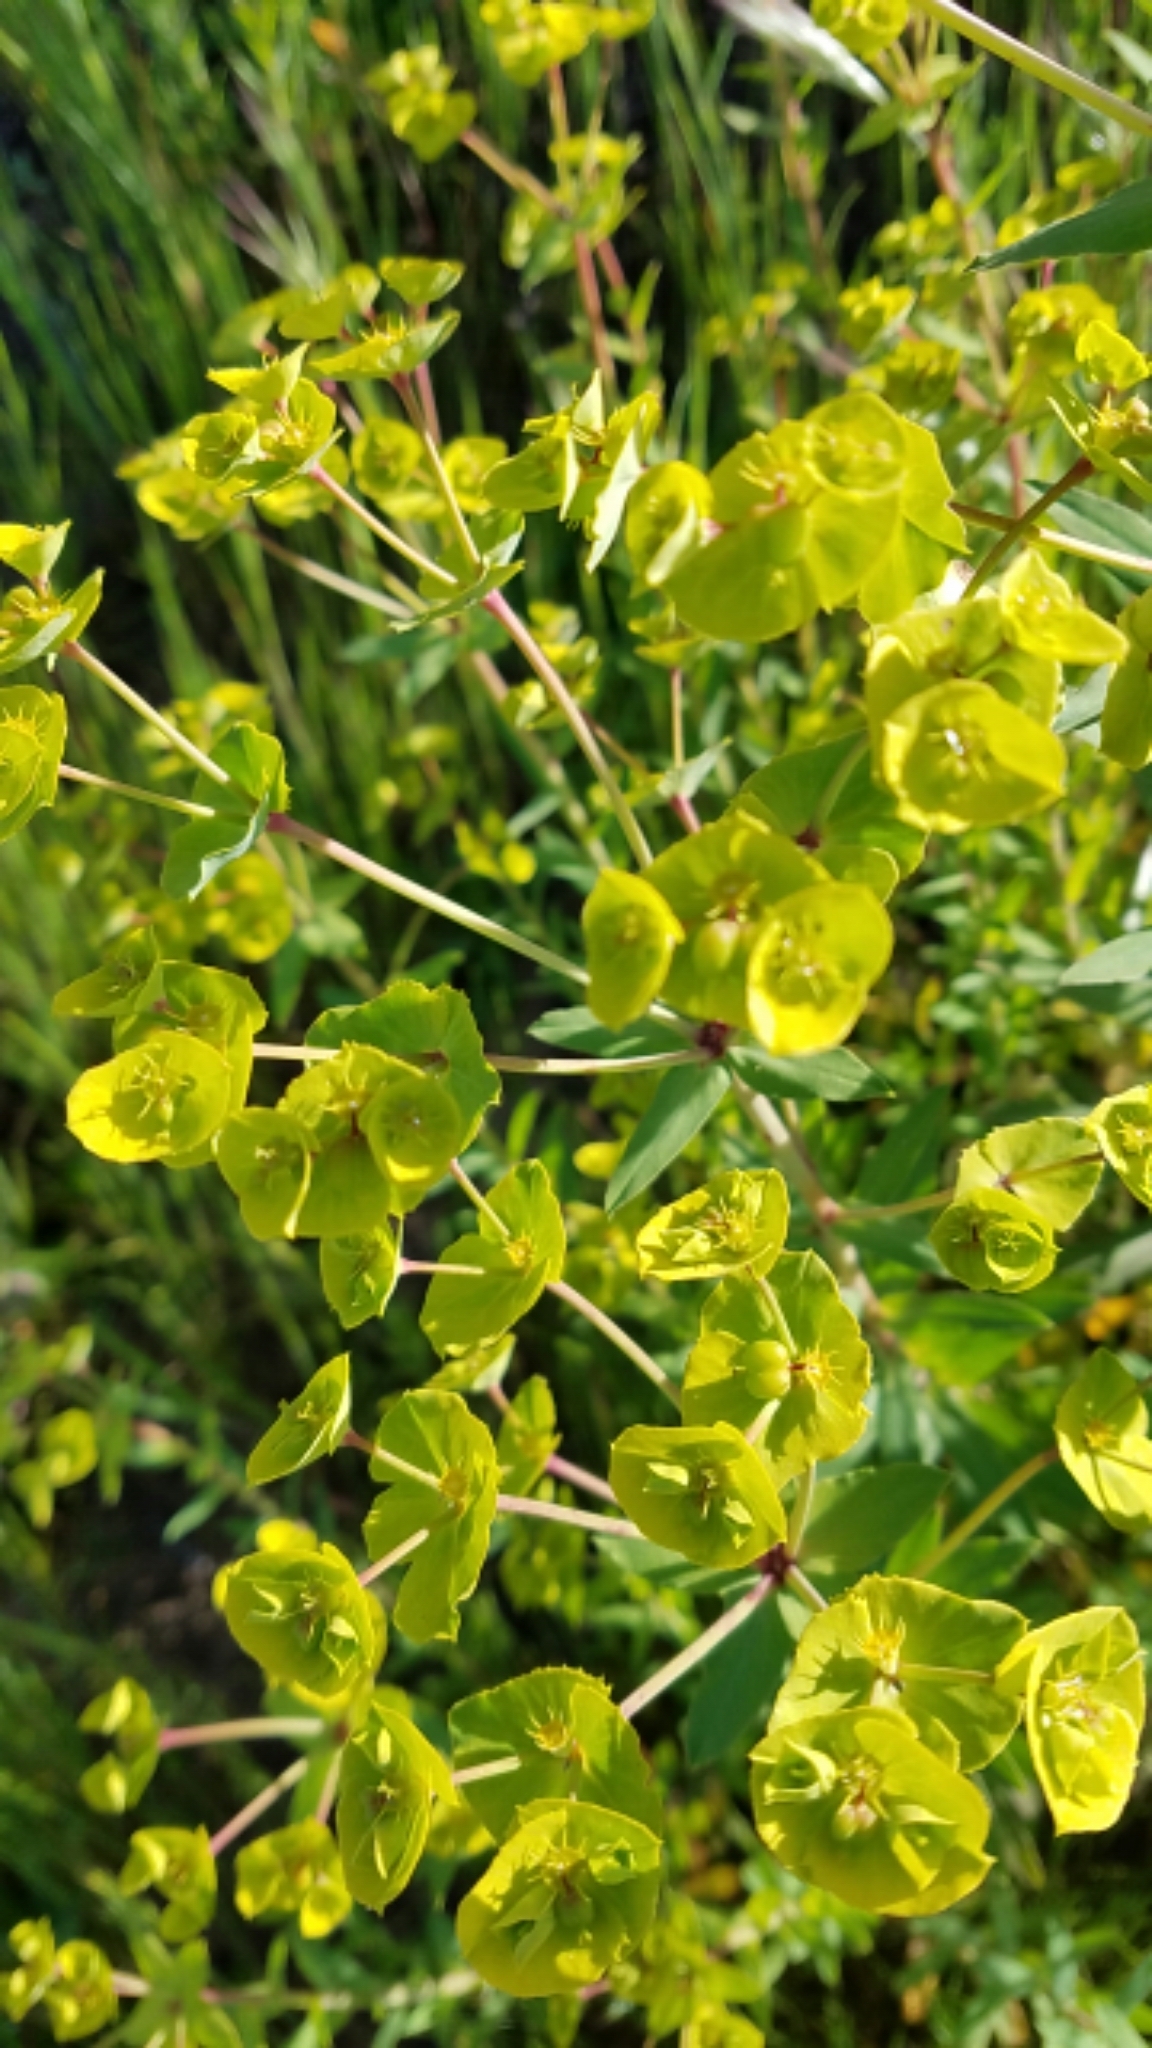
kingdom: Plantae
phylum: Tracheophyta
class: Magnoliopsida
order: Malpighiales
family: Euphorbiaceae
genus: Euphorbia
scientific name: Euphorbia terracina
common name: Geraldton carnation weed
